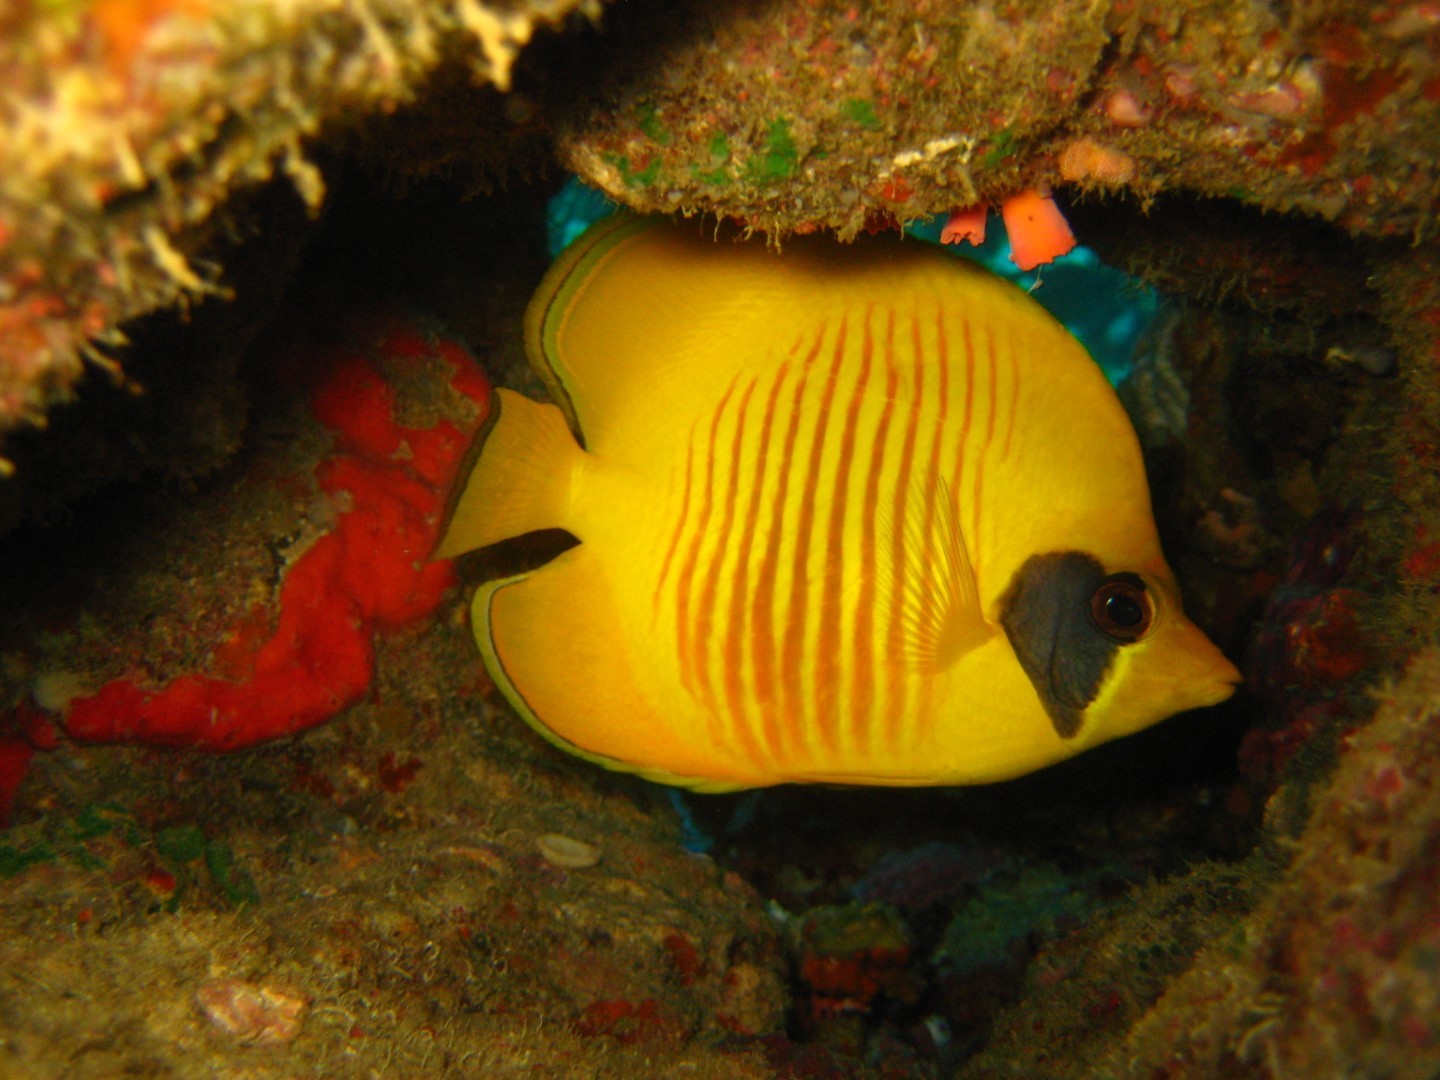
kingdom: Animalia
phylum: Chordata
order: Perciformes
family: Chaetodontidae
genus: Chaetodon
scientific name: Chaetodon semilarvatus
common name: Golden butterflyfish
